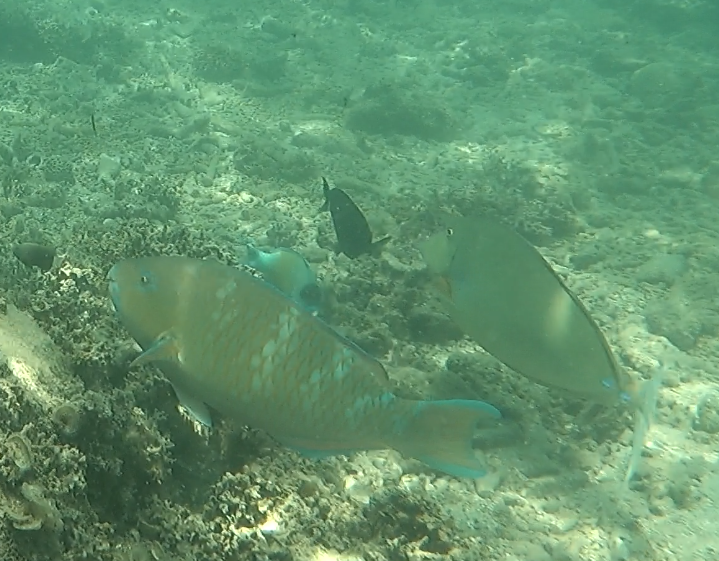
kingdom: Animalia
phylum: Chordata
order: Perciformes
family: Scaridae
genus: Scarus
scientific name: Scarus ghobban
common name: Blue-barred parrotfish
